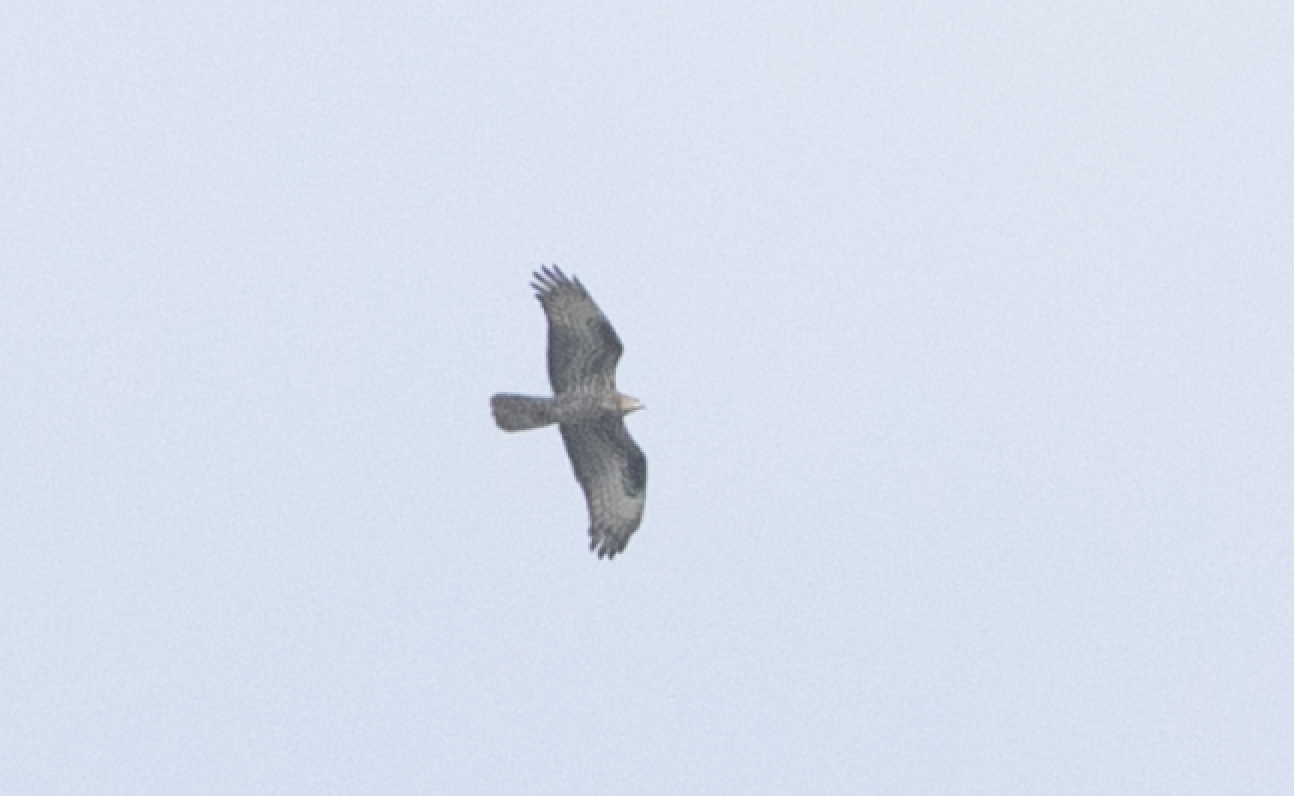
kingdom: Animalia
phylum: Chordata
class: Aves
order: Accipitriformes
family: Accipitridae
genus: Pernis
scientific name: Pernis apivorus
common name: European honey buzzard
